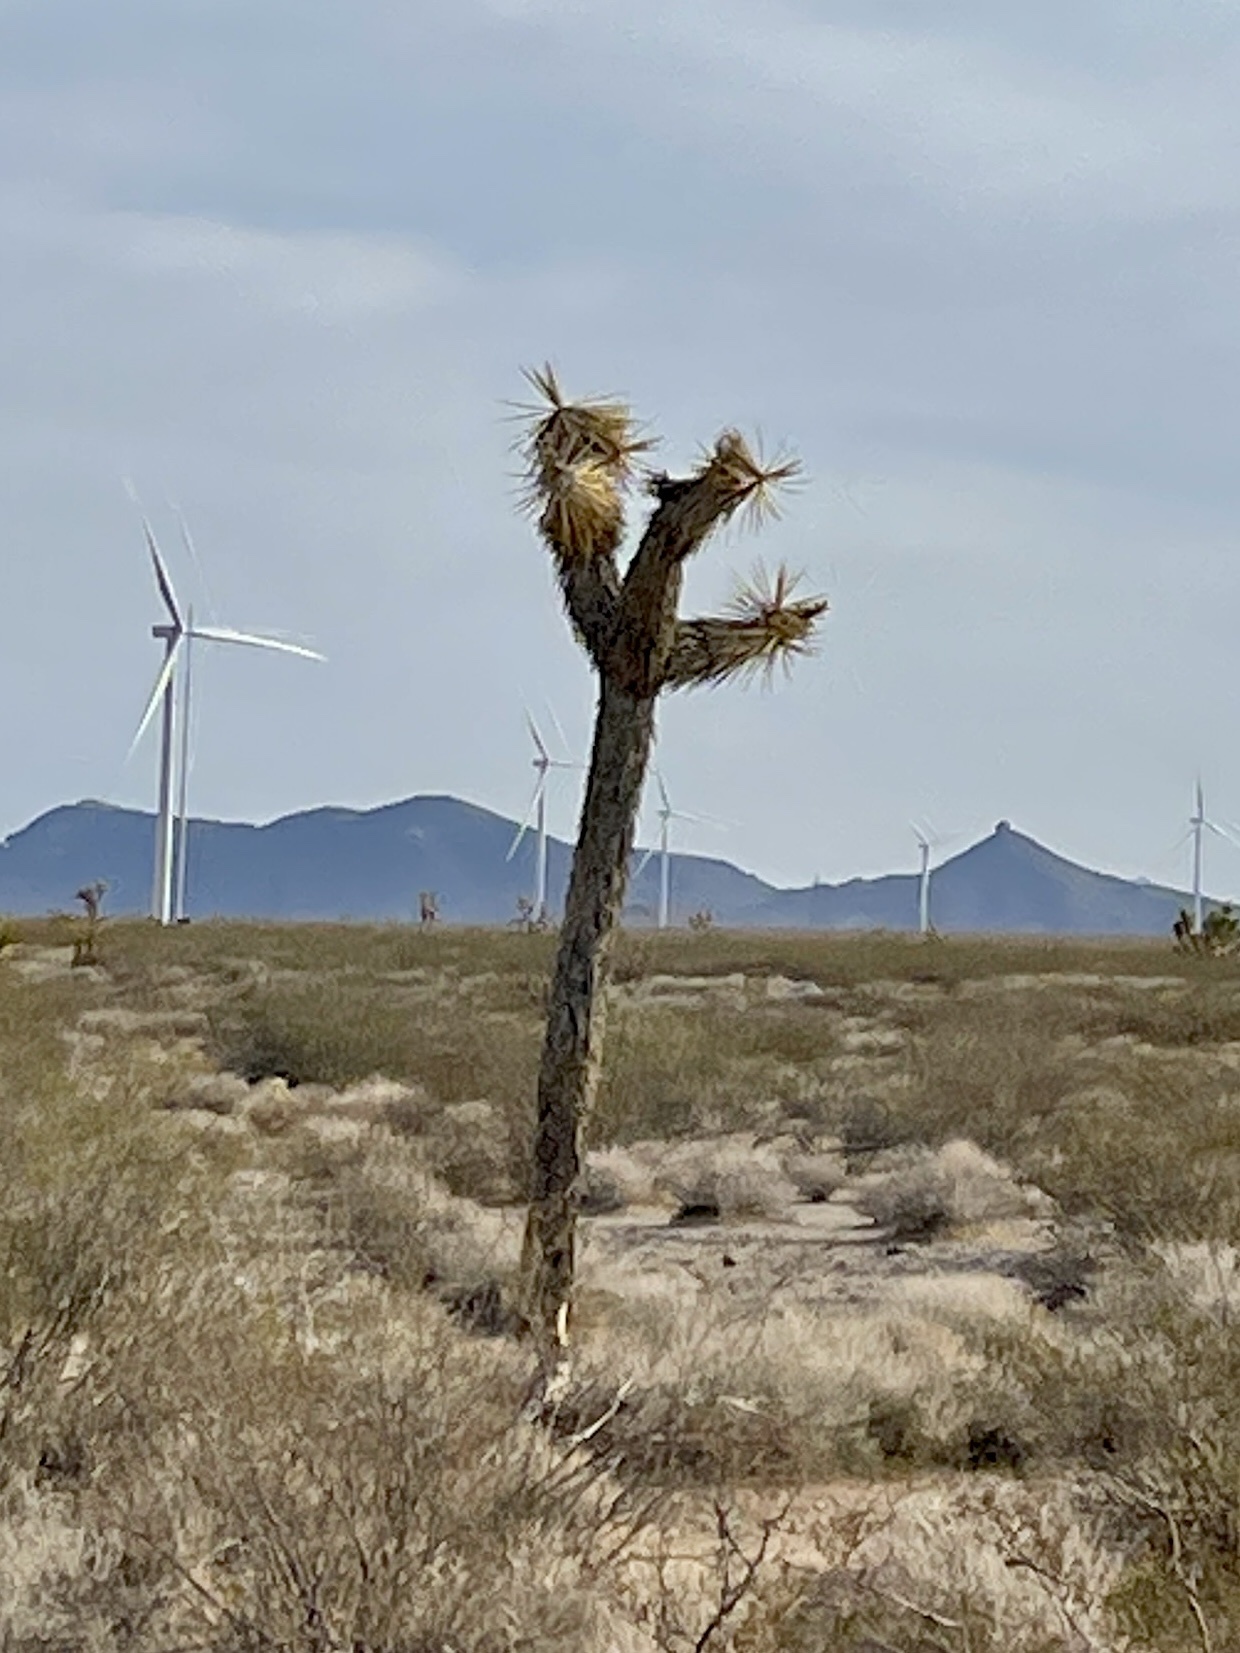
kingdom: Plantae
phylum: Tracheophyta
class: Liliopsida
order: Asparagales
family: Asparagaceae
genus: Yucca
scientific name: Yucca brevifolia
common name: Joshua tree
